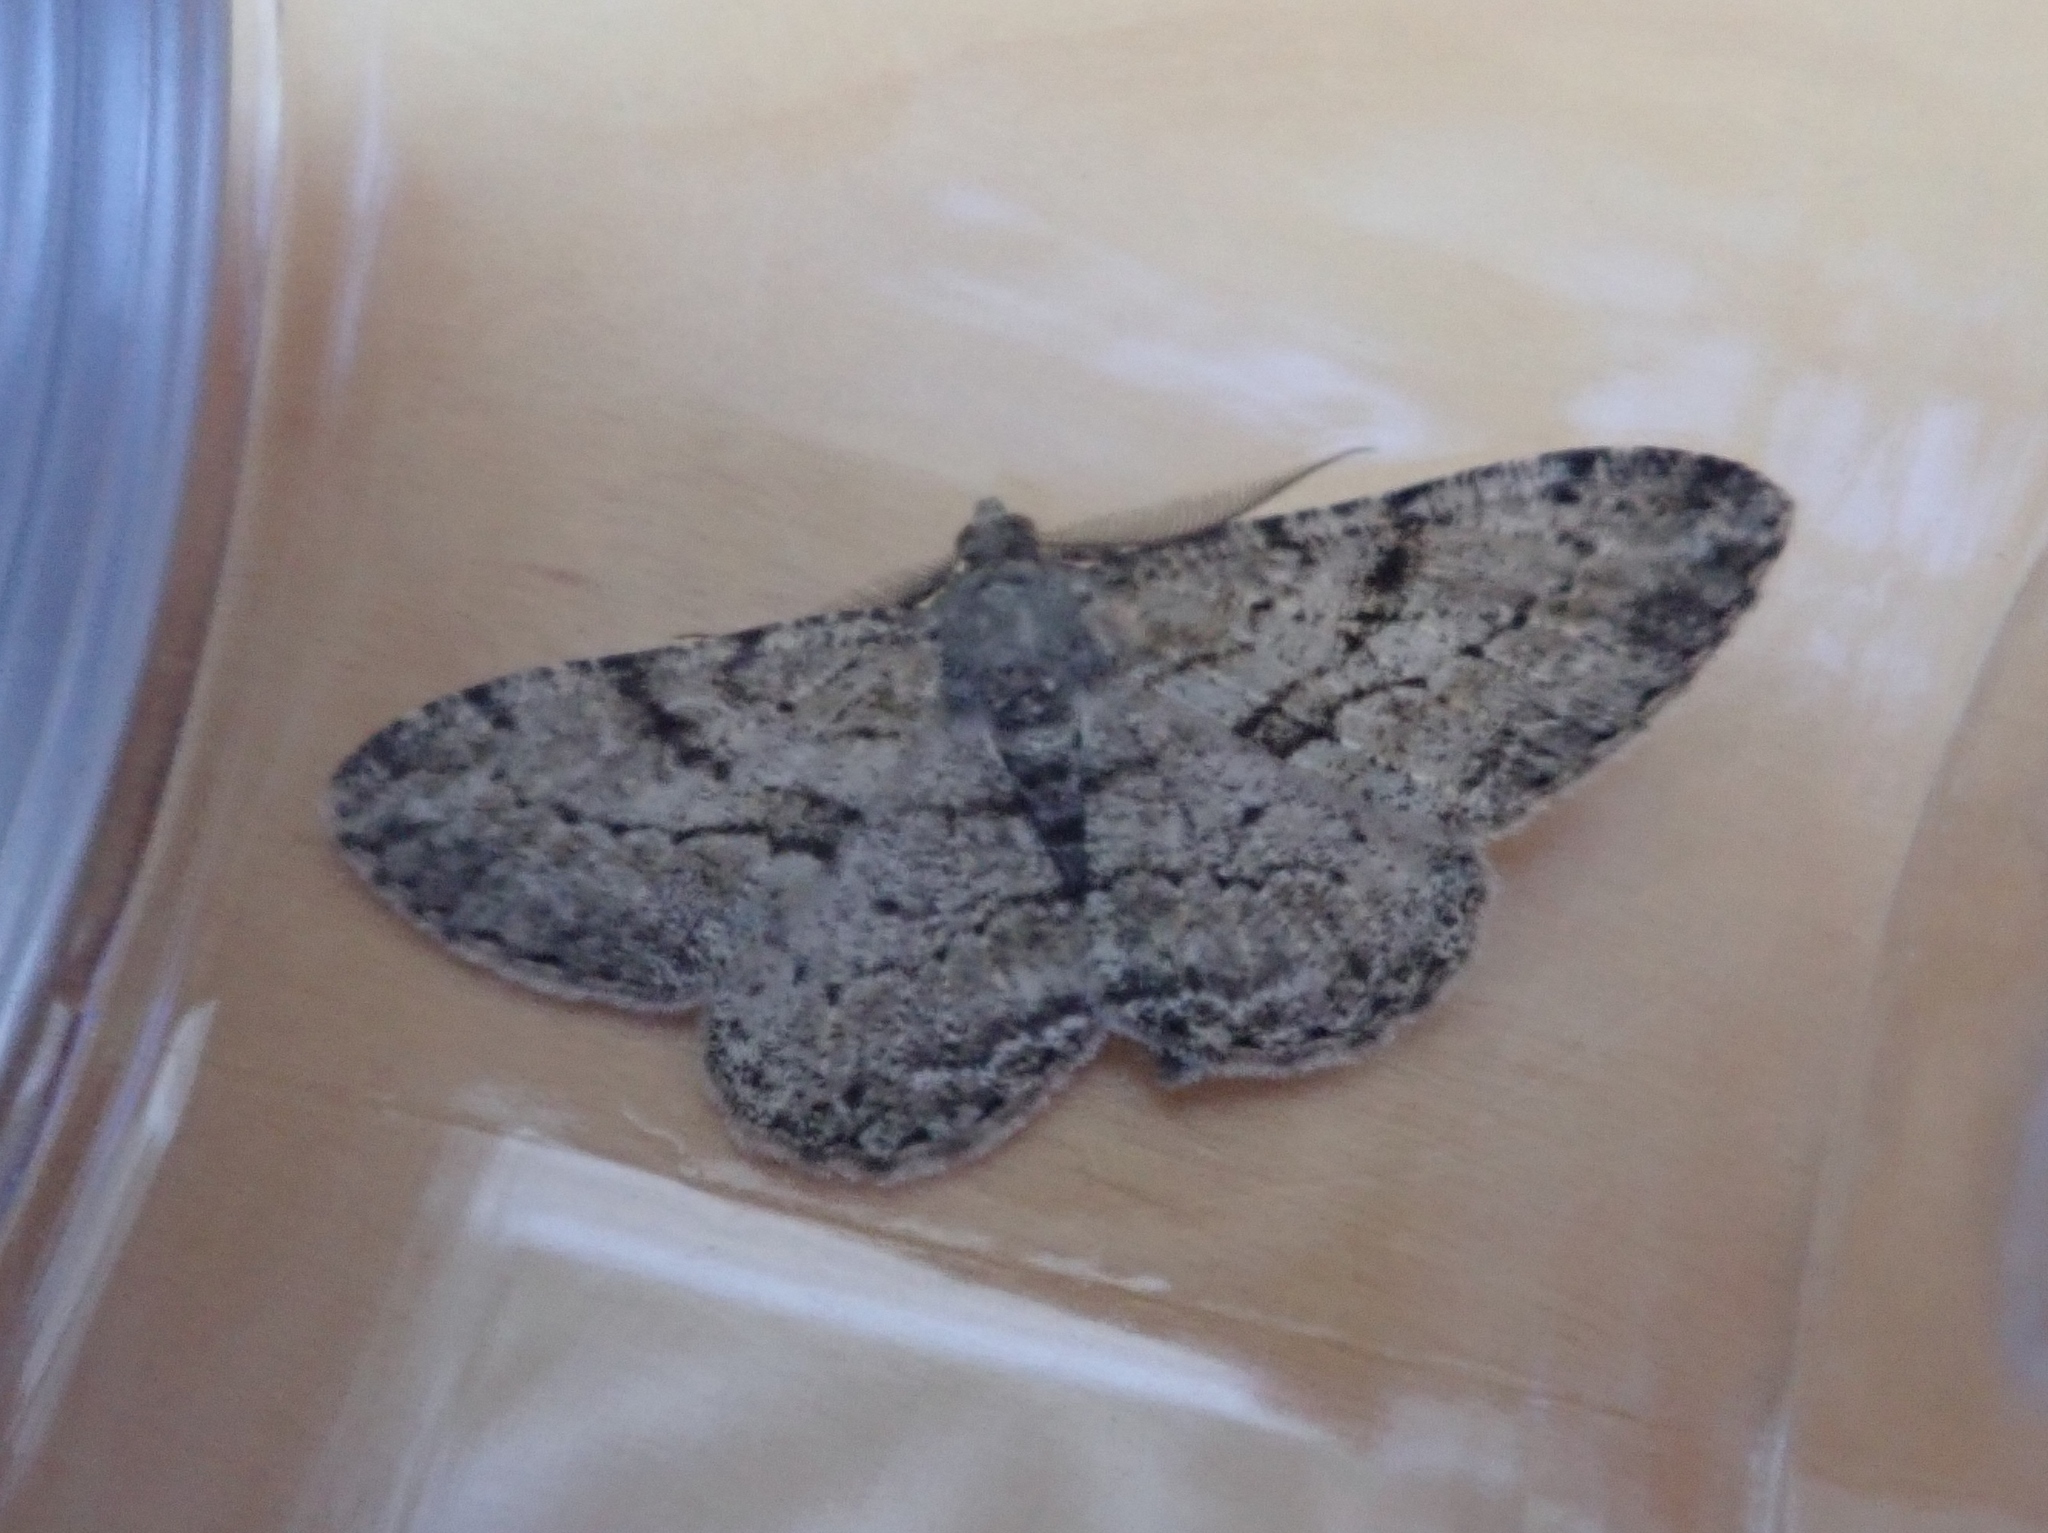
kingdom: Animalia
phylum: Arthropoda
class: Insecta
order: Lepidoptera
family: Geometridae
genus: Peribatodes
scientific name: Peribatodes rhomboidaria
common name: Willow beauty
